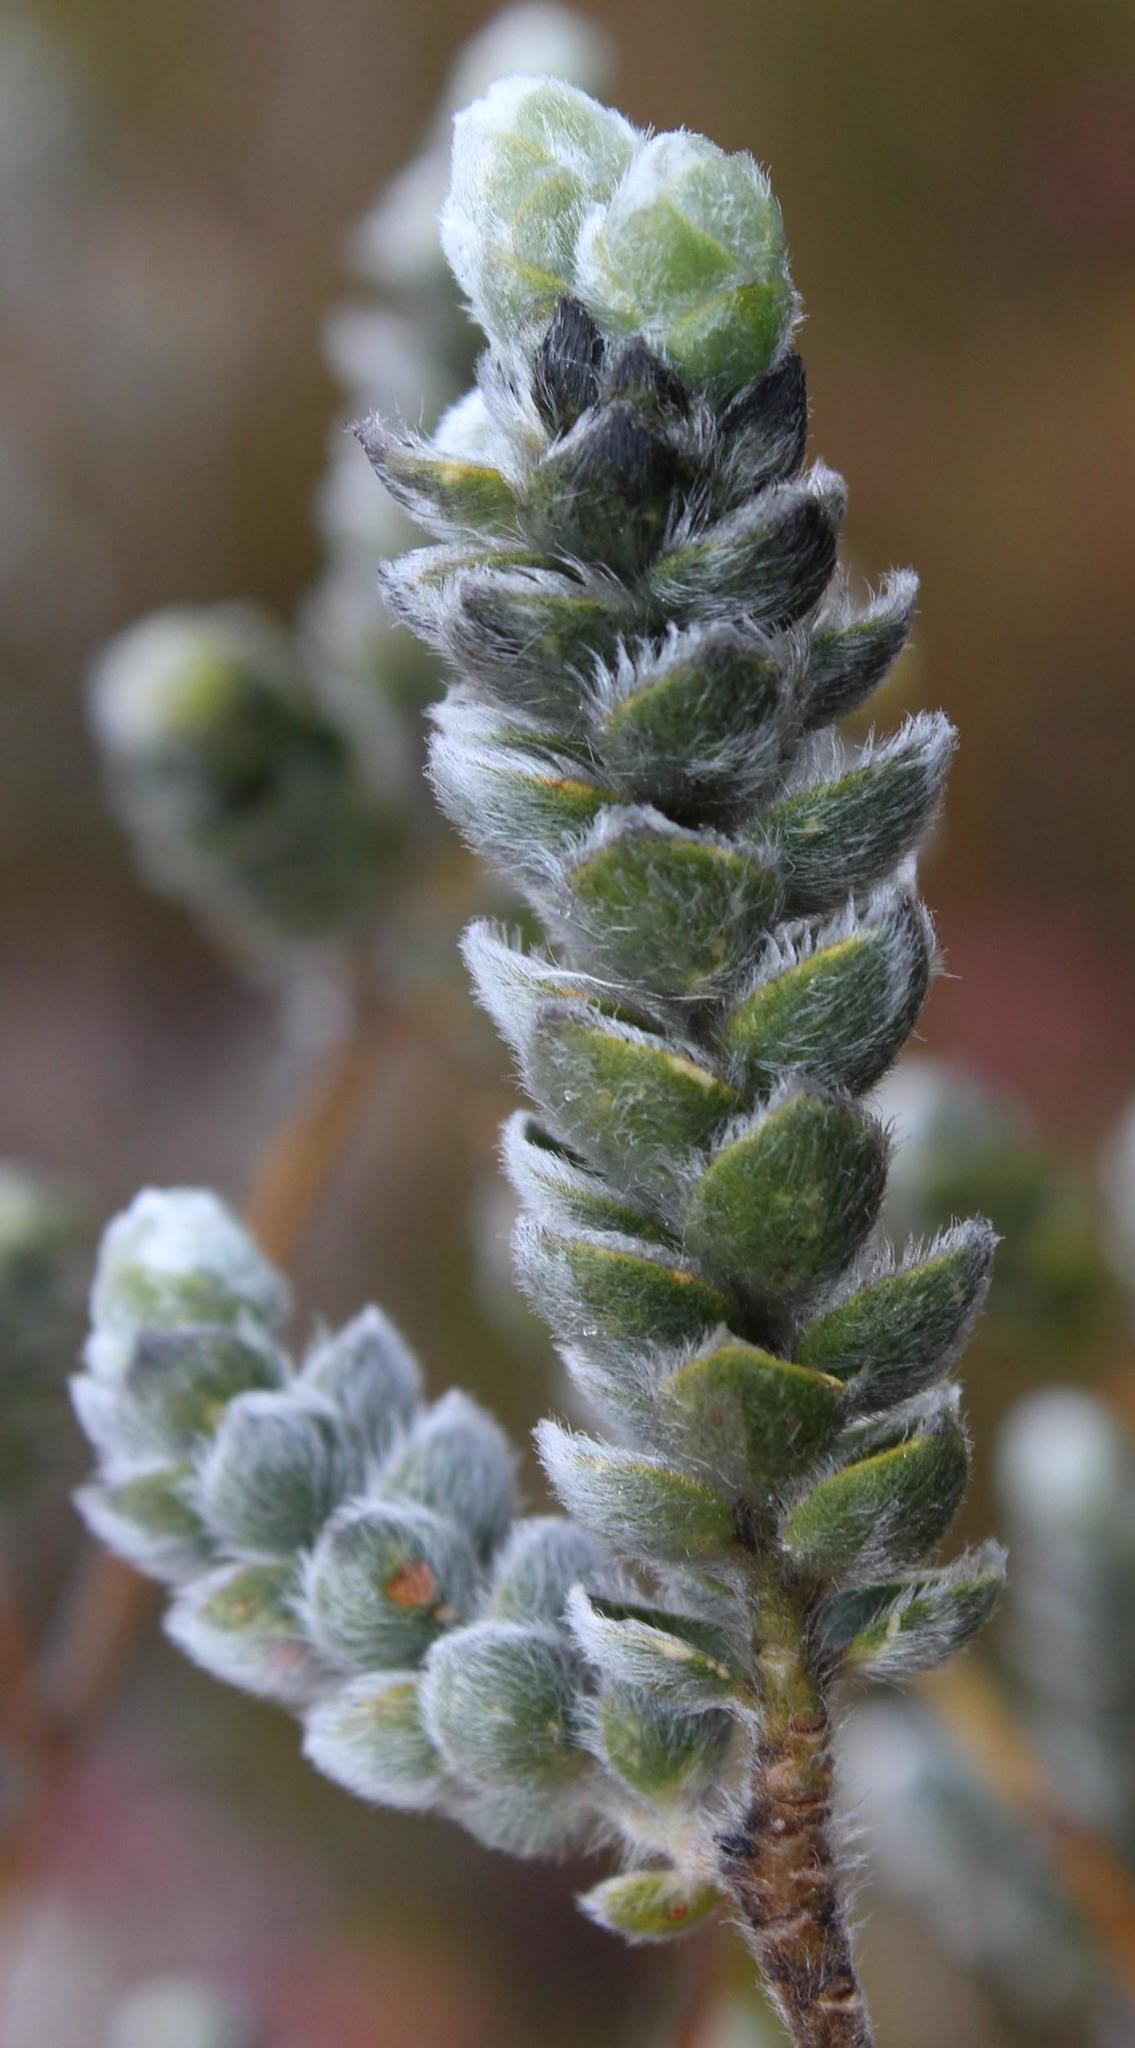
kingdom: Plantae
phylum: Tracheophyta
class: Magnoliopsida
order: Fabales
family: Fabaceae
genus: Liparia
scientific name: Liparia vestita
